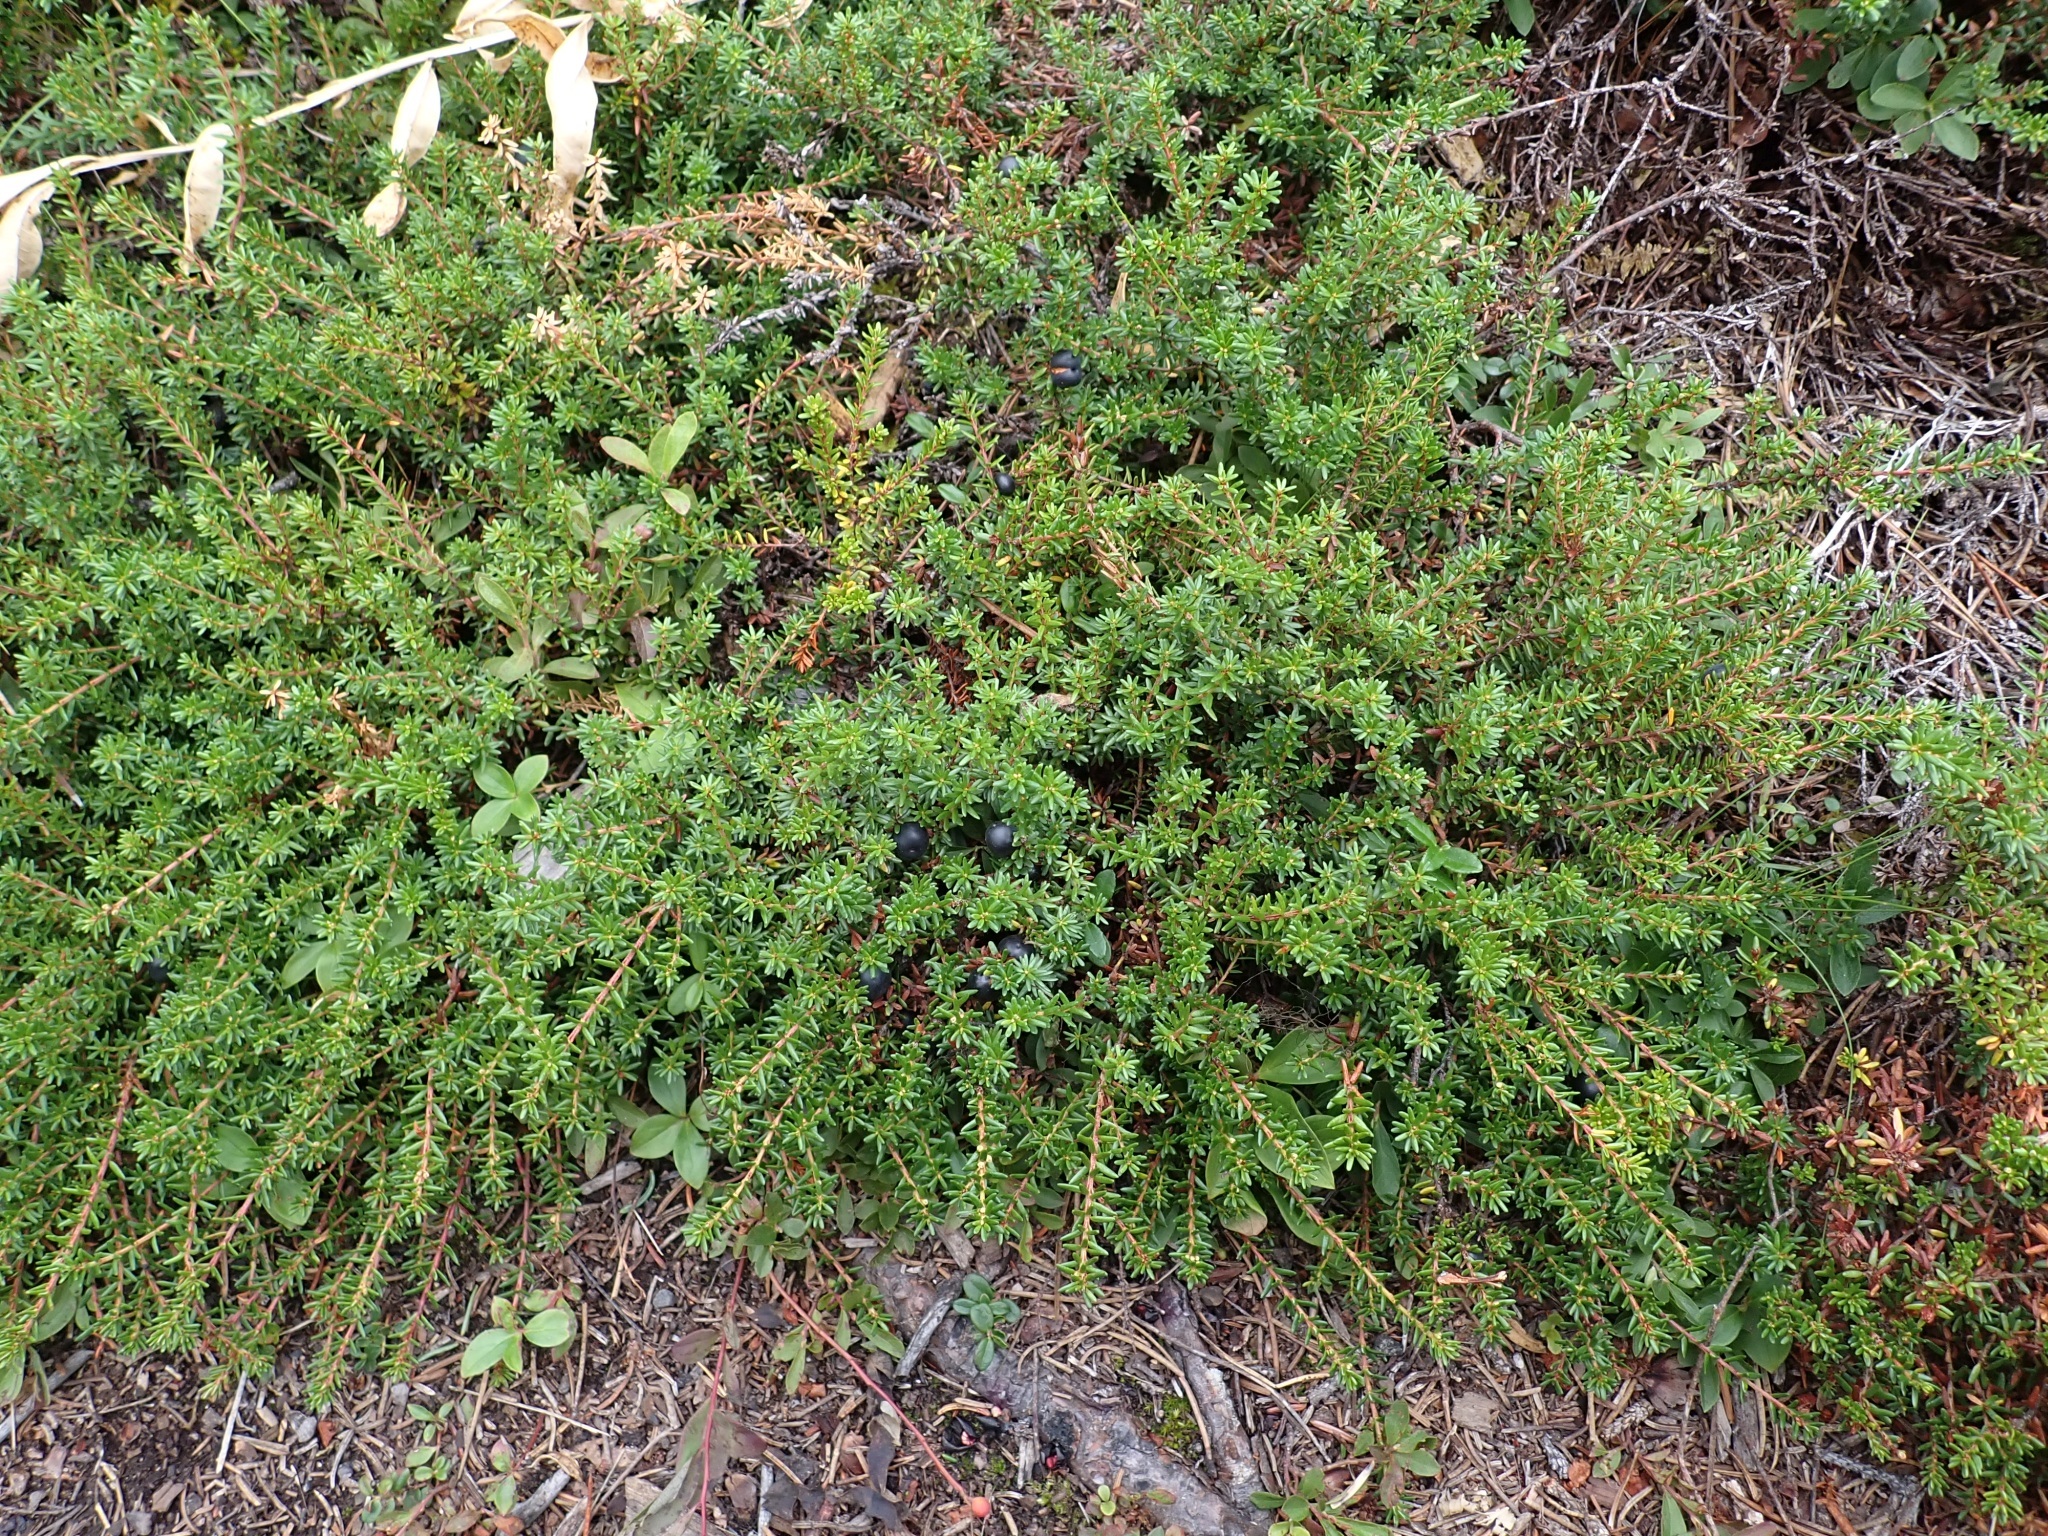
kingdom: Plantae
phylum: Tracheophyta
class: Magnoliopsida
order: Ericales
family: Ericaceae
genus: Empetrum
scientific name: Empetrum nigrum
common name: Black crowberry
